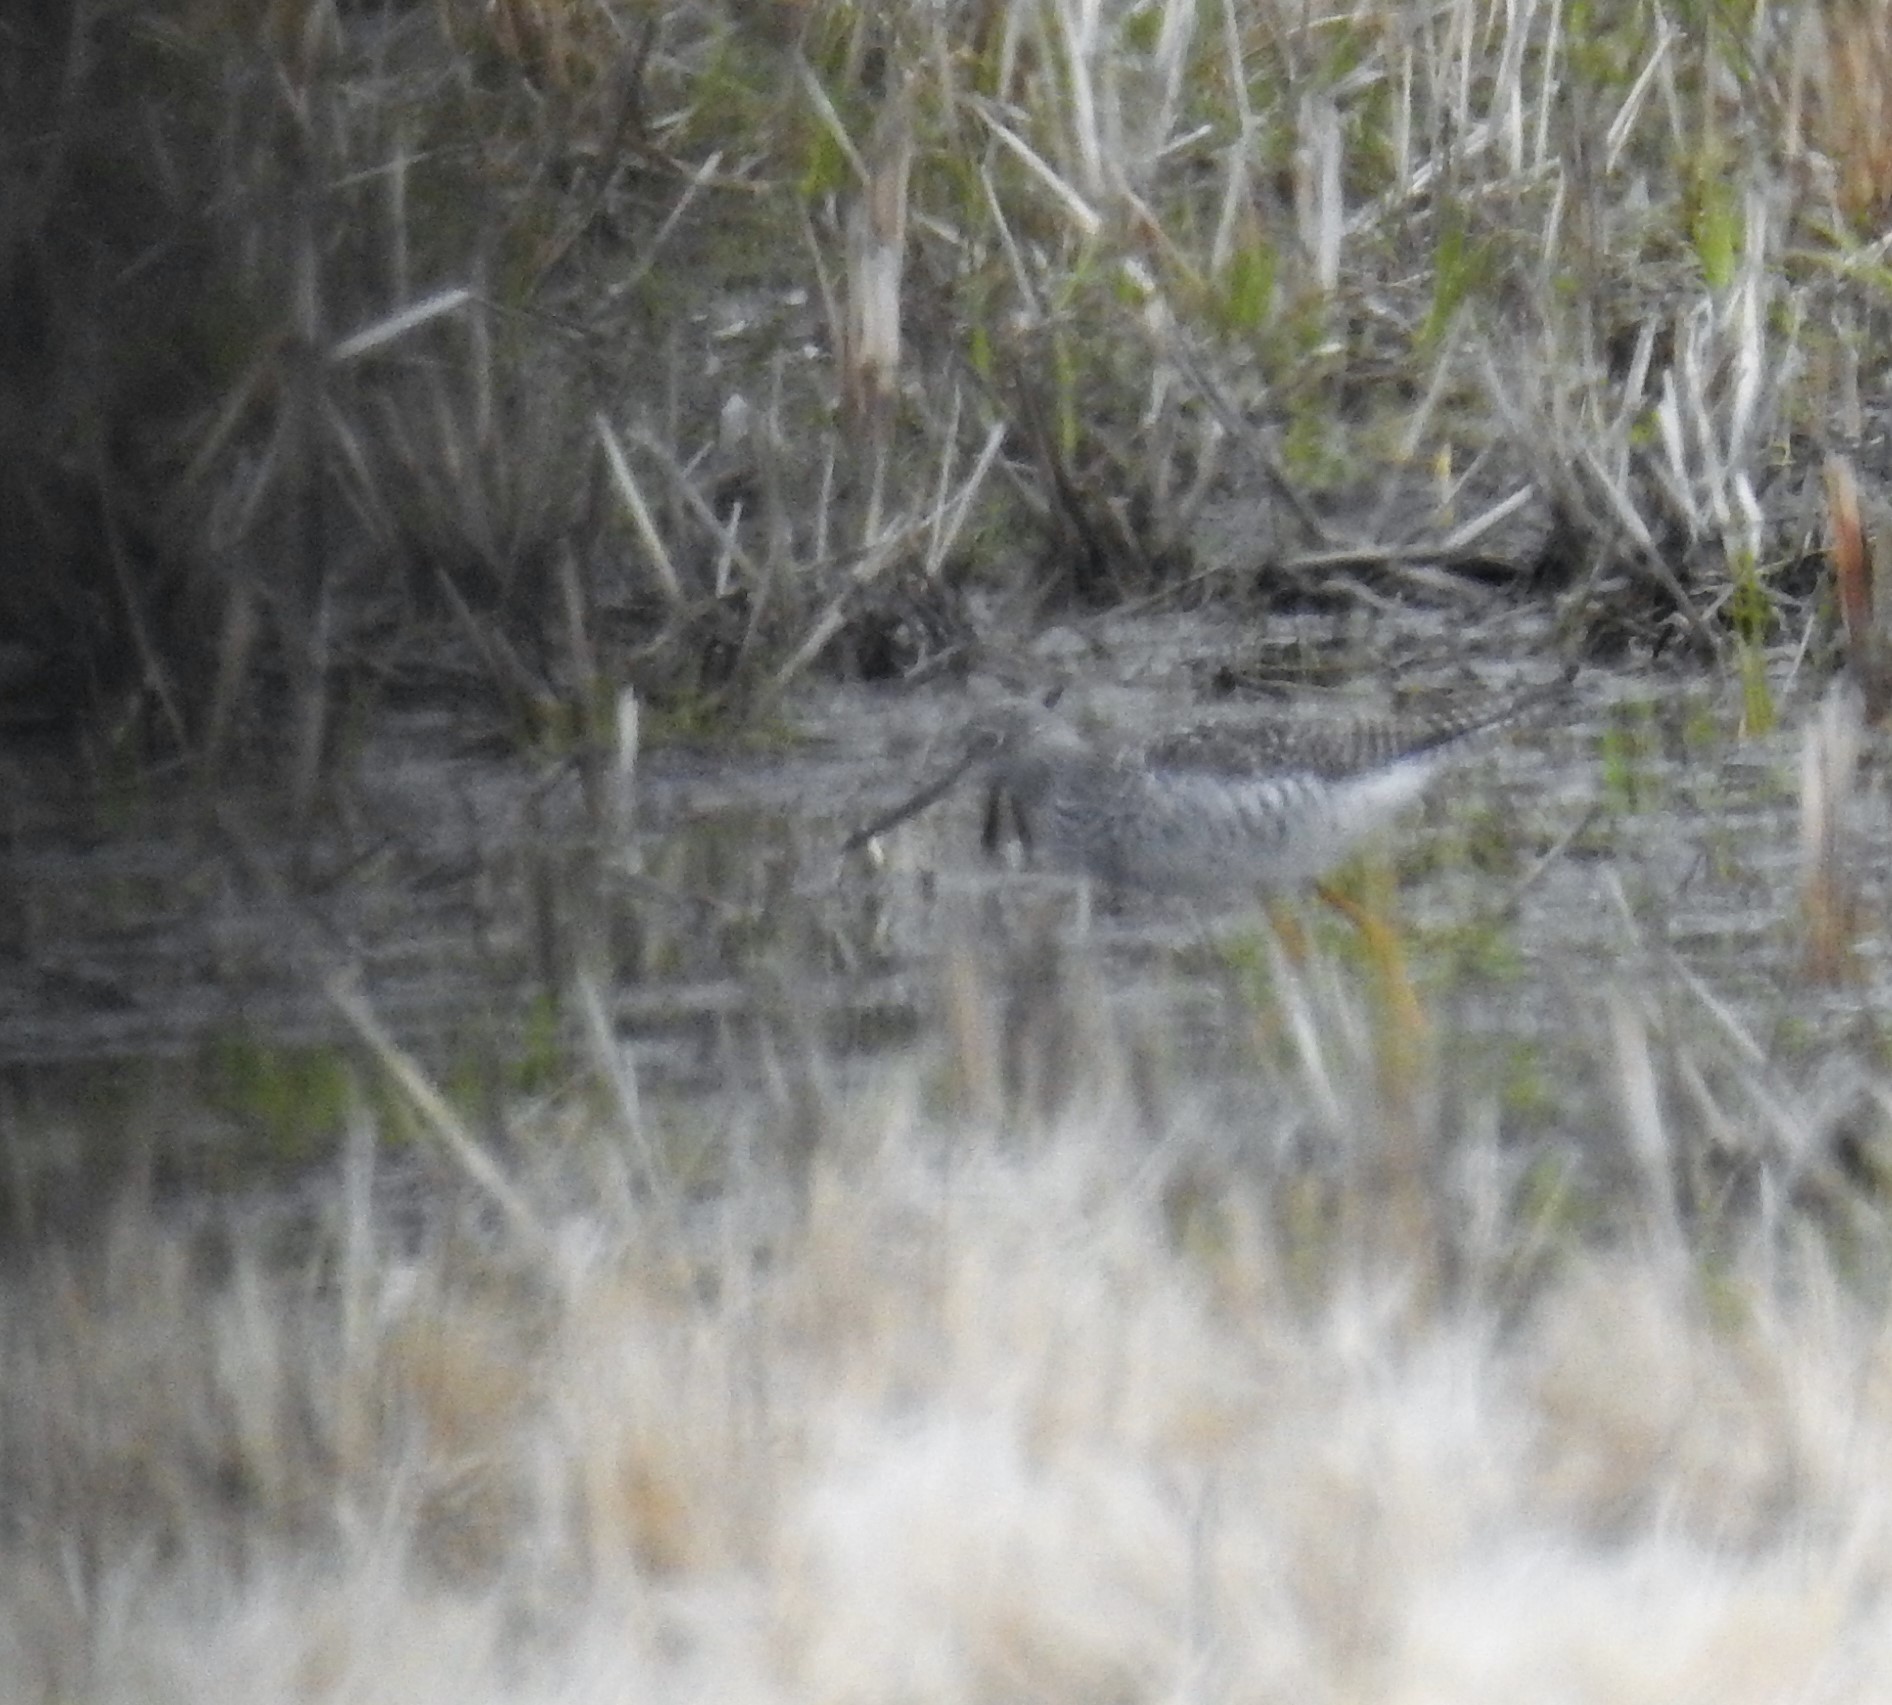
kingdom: Animalia
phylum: Chordata
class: Aves
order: Charadriiformes
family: Scolopacidae
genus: Tringa
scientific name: Tringa melanoleuca
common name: Greater yellowlegs
